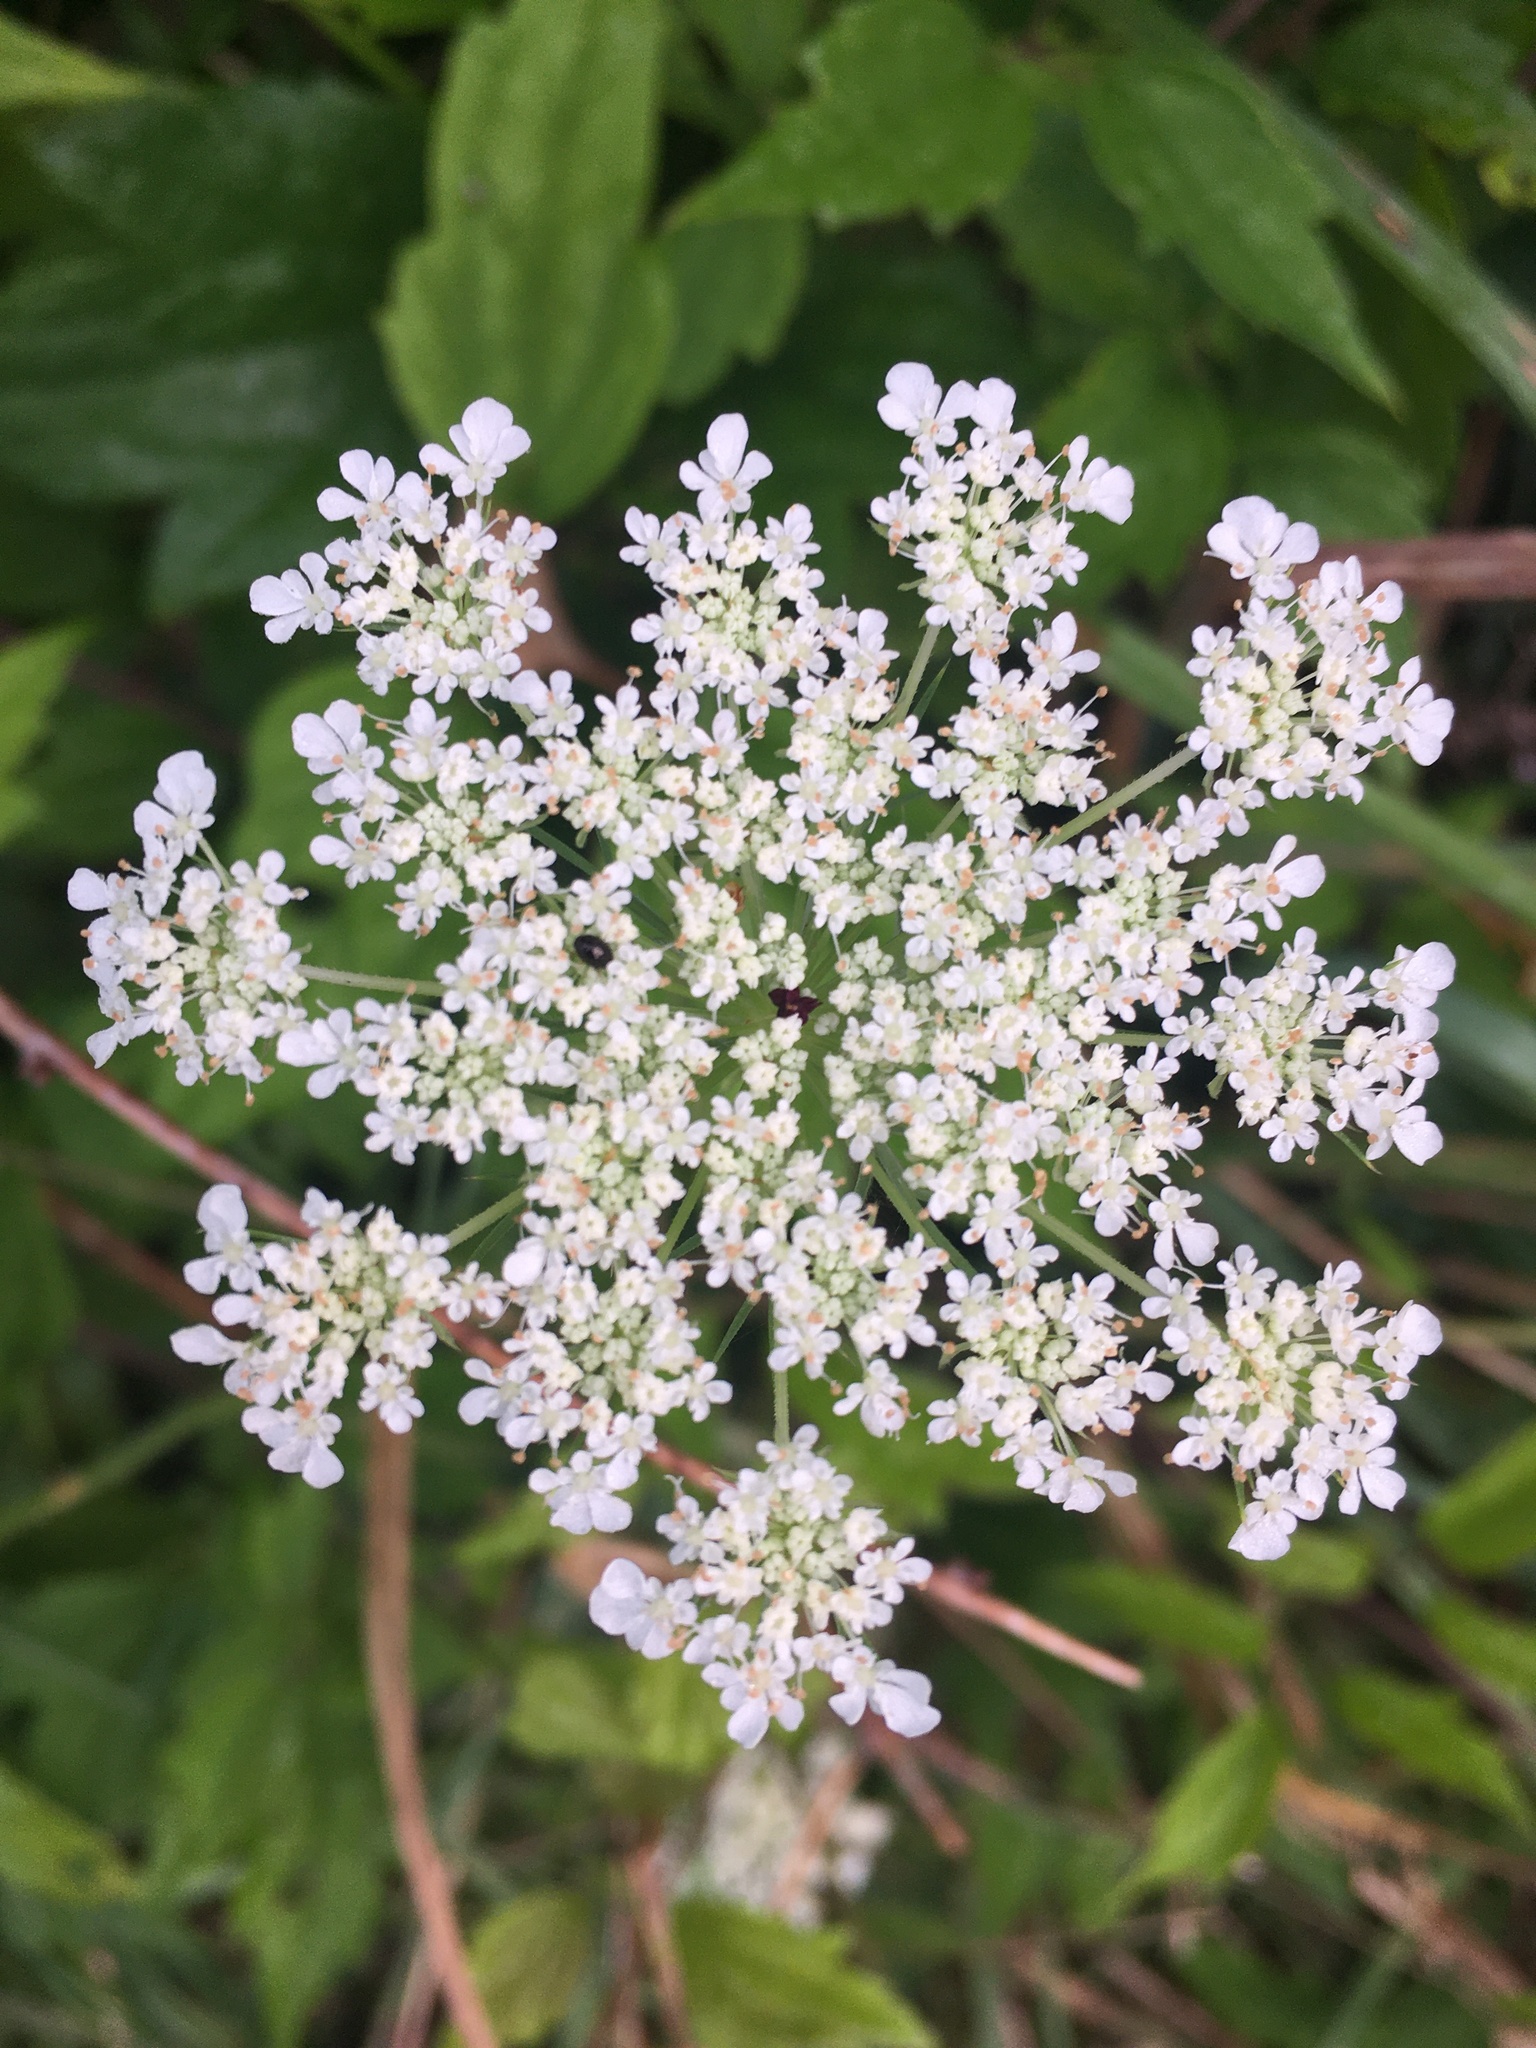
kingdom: Plantae
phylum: Tracheophyta
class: Magnoliopsida
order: Apiales
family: Apiaceae
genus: Daucus
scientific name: Daucus carota
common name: Wild carrot
